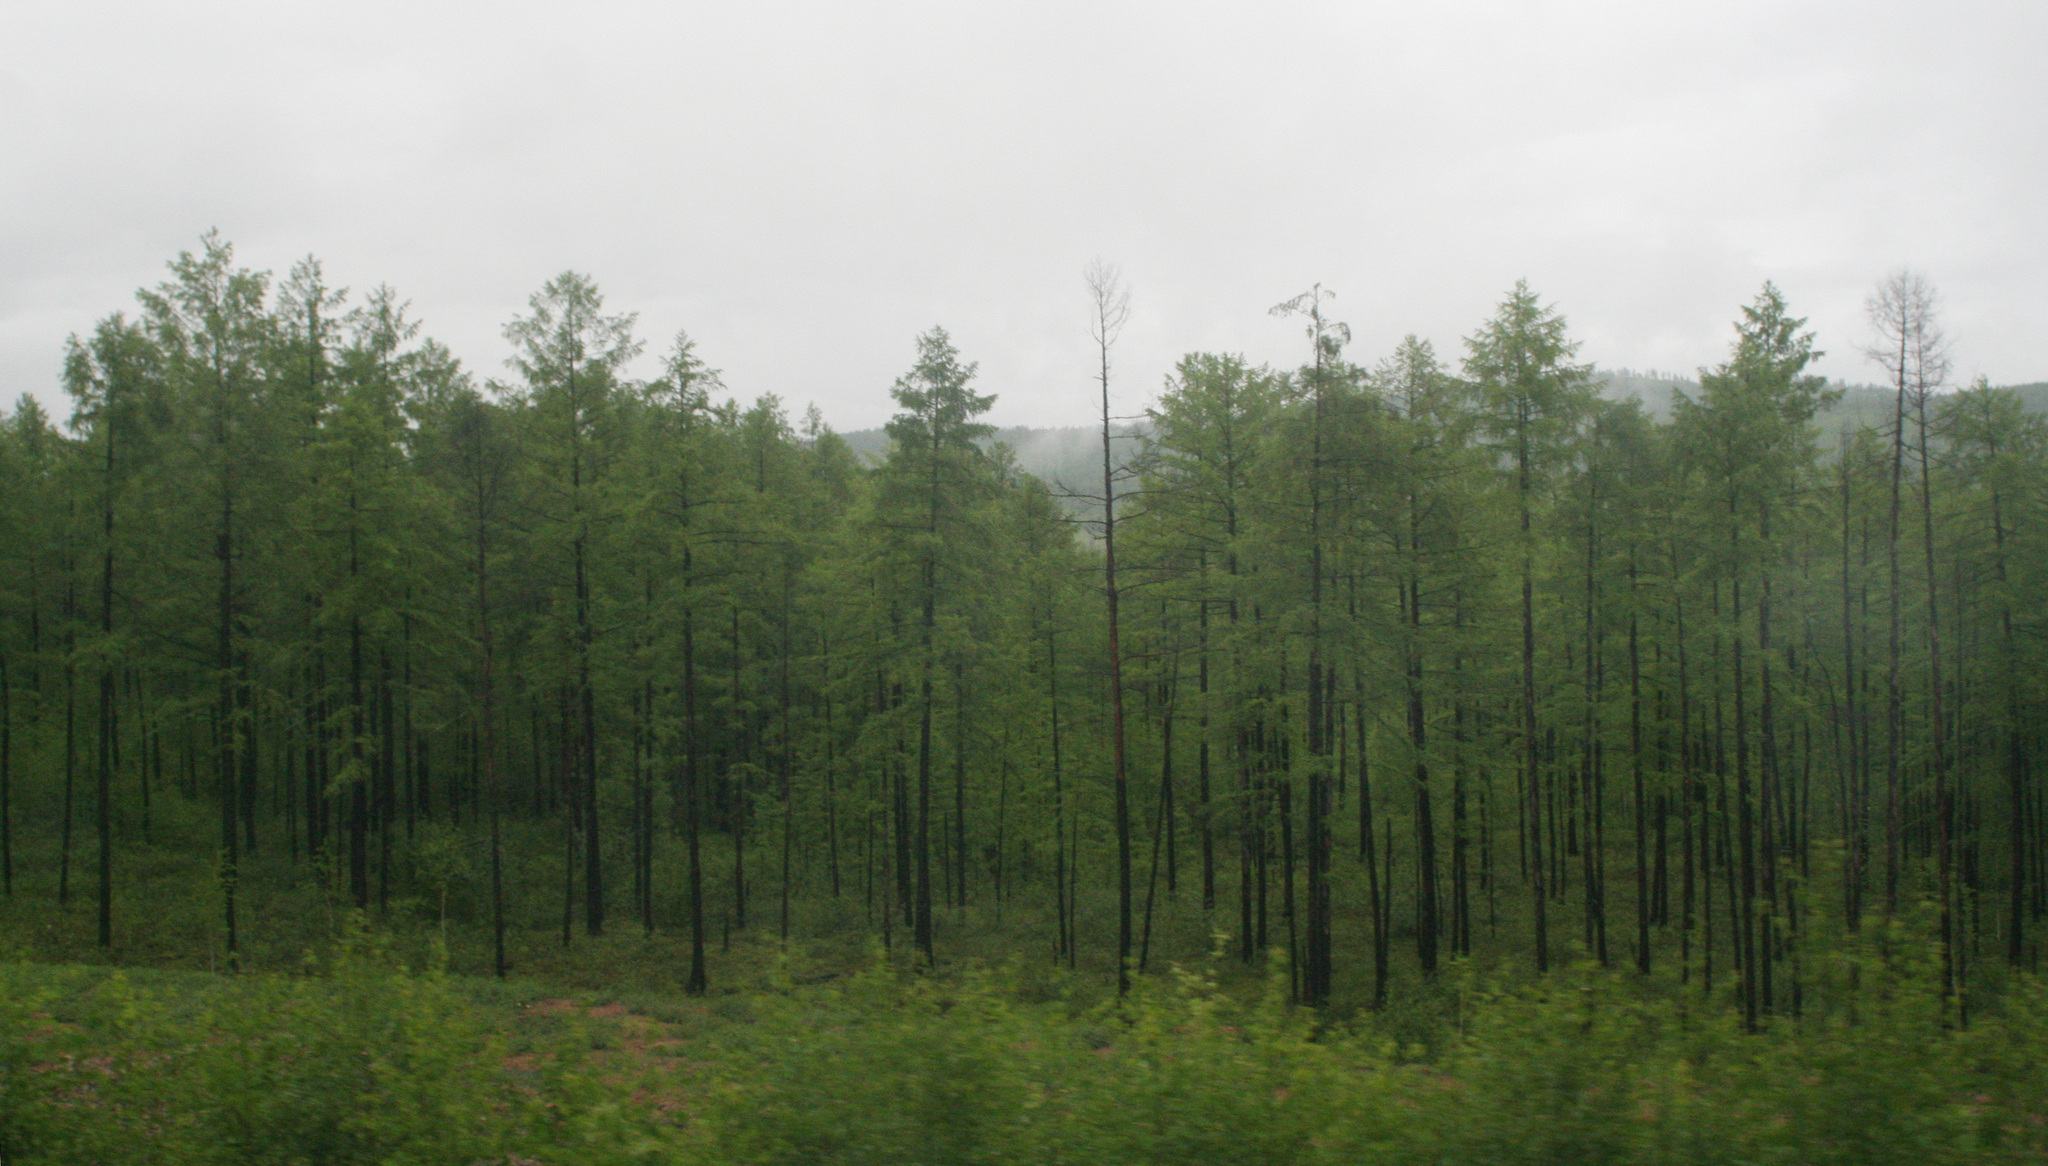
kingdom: Plantae
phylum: Tracheophyta
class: Pinopsida
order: Pinales
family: Pinaceae
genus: Larix
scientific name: Larix gmelinii
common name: Dahurian larch
